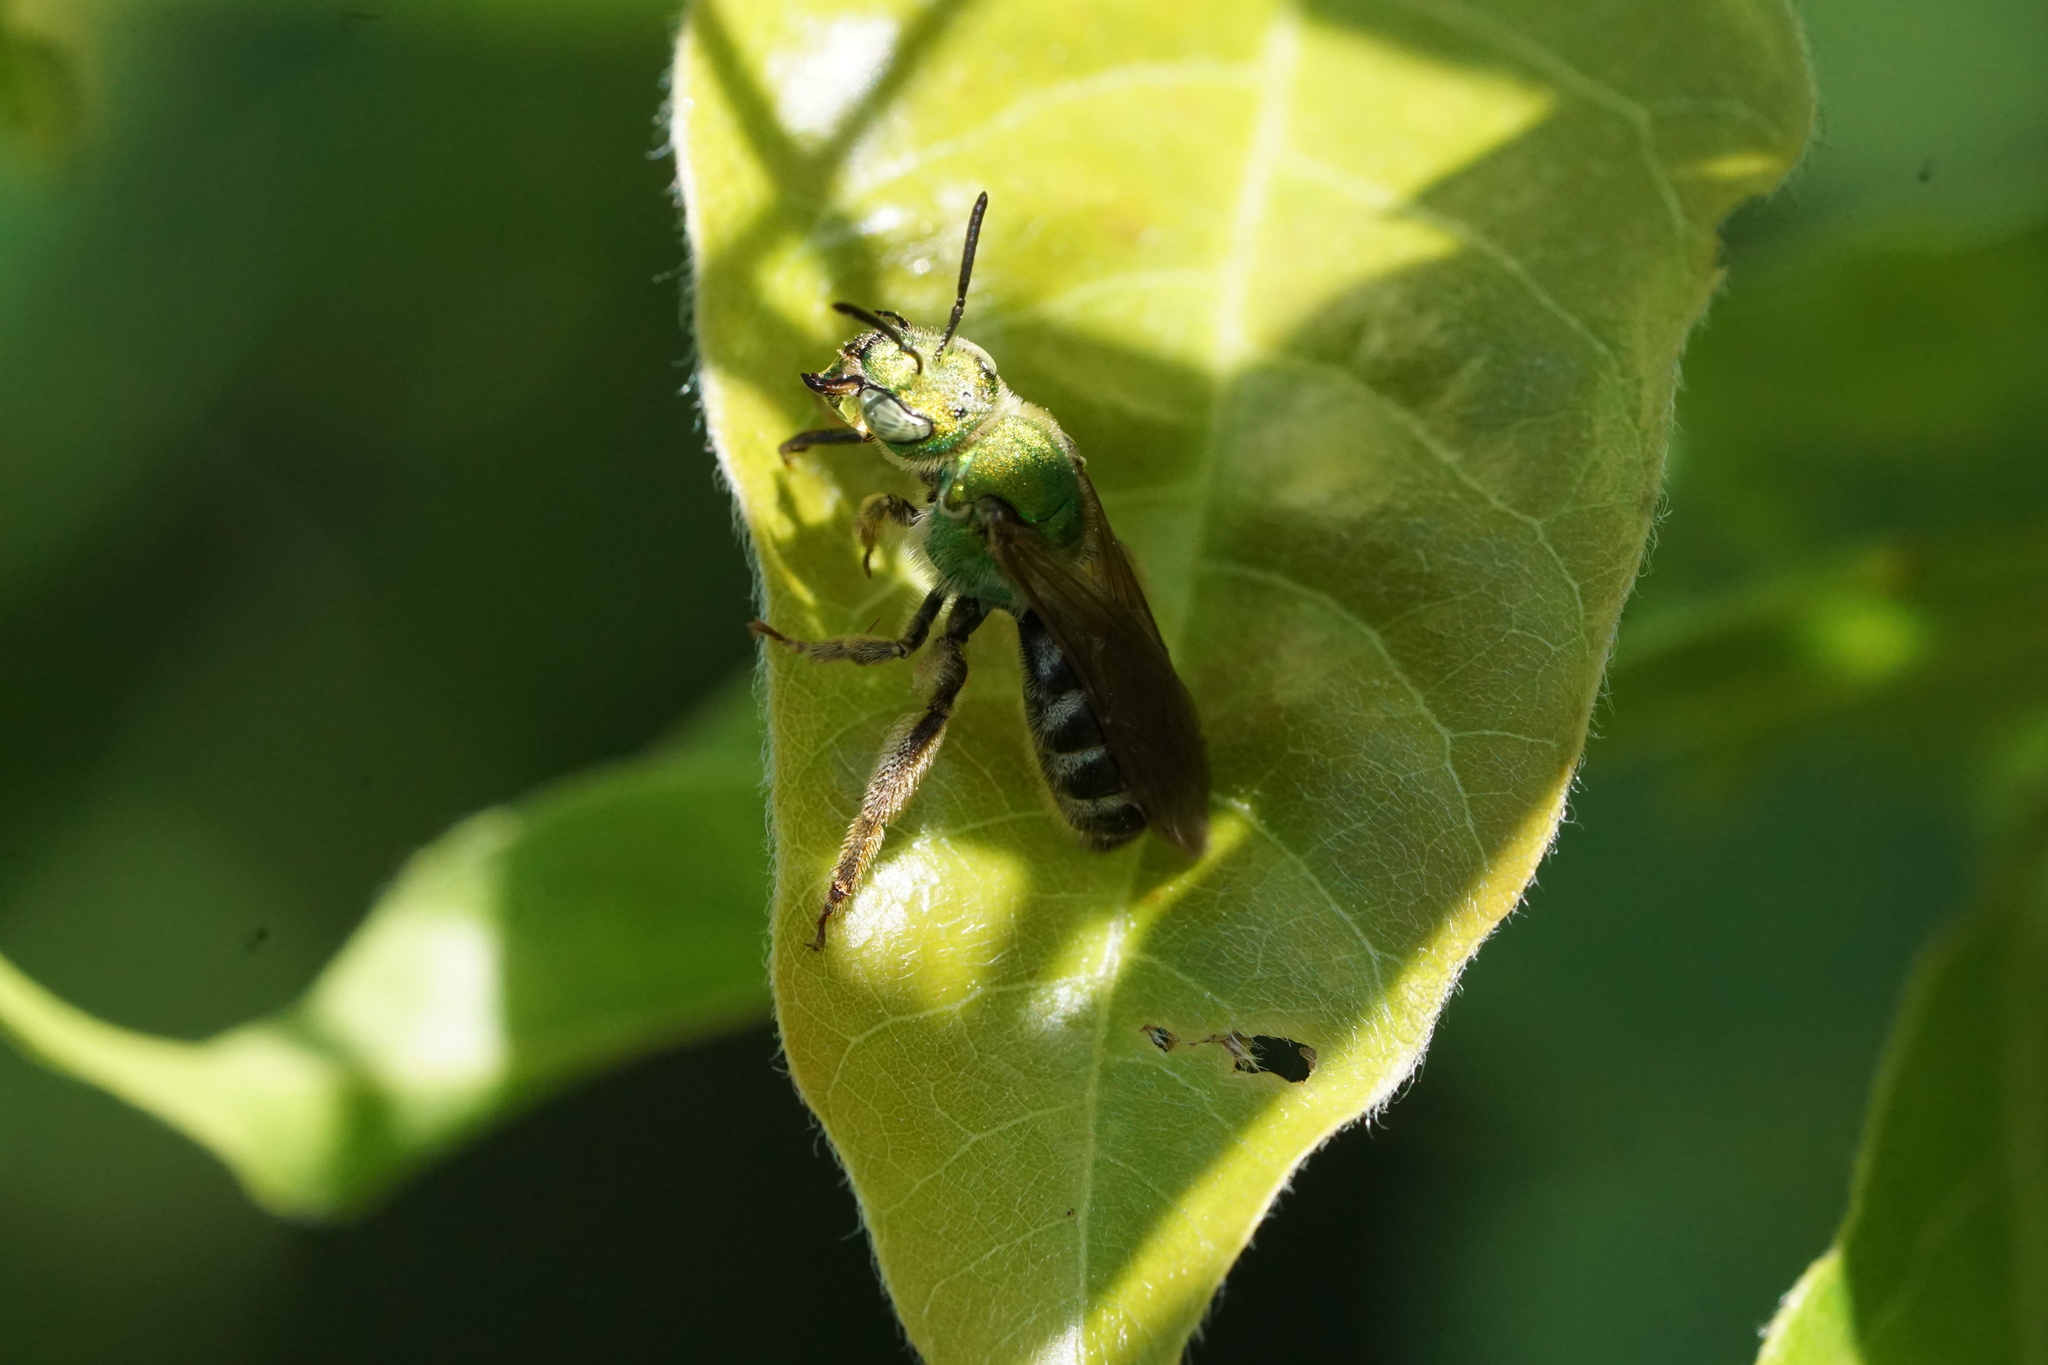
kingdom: Animalia
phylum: Arthropoda
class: Insecta
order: Hymenoptera
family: Halictidae
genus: Agapostemon
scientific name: Agapostemon virescens
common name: Bicolored striped sweat bee
